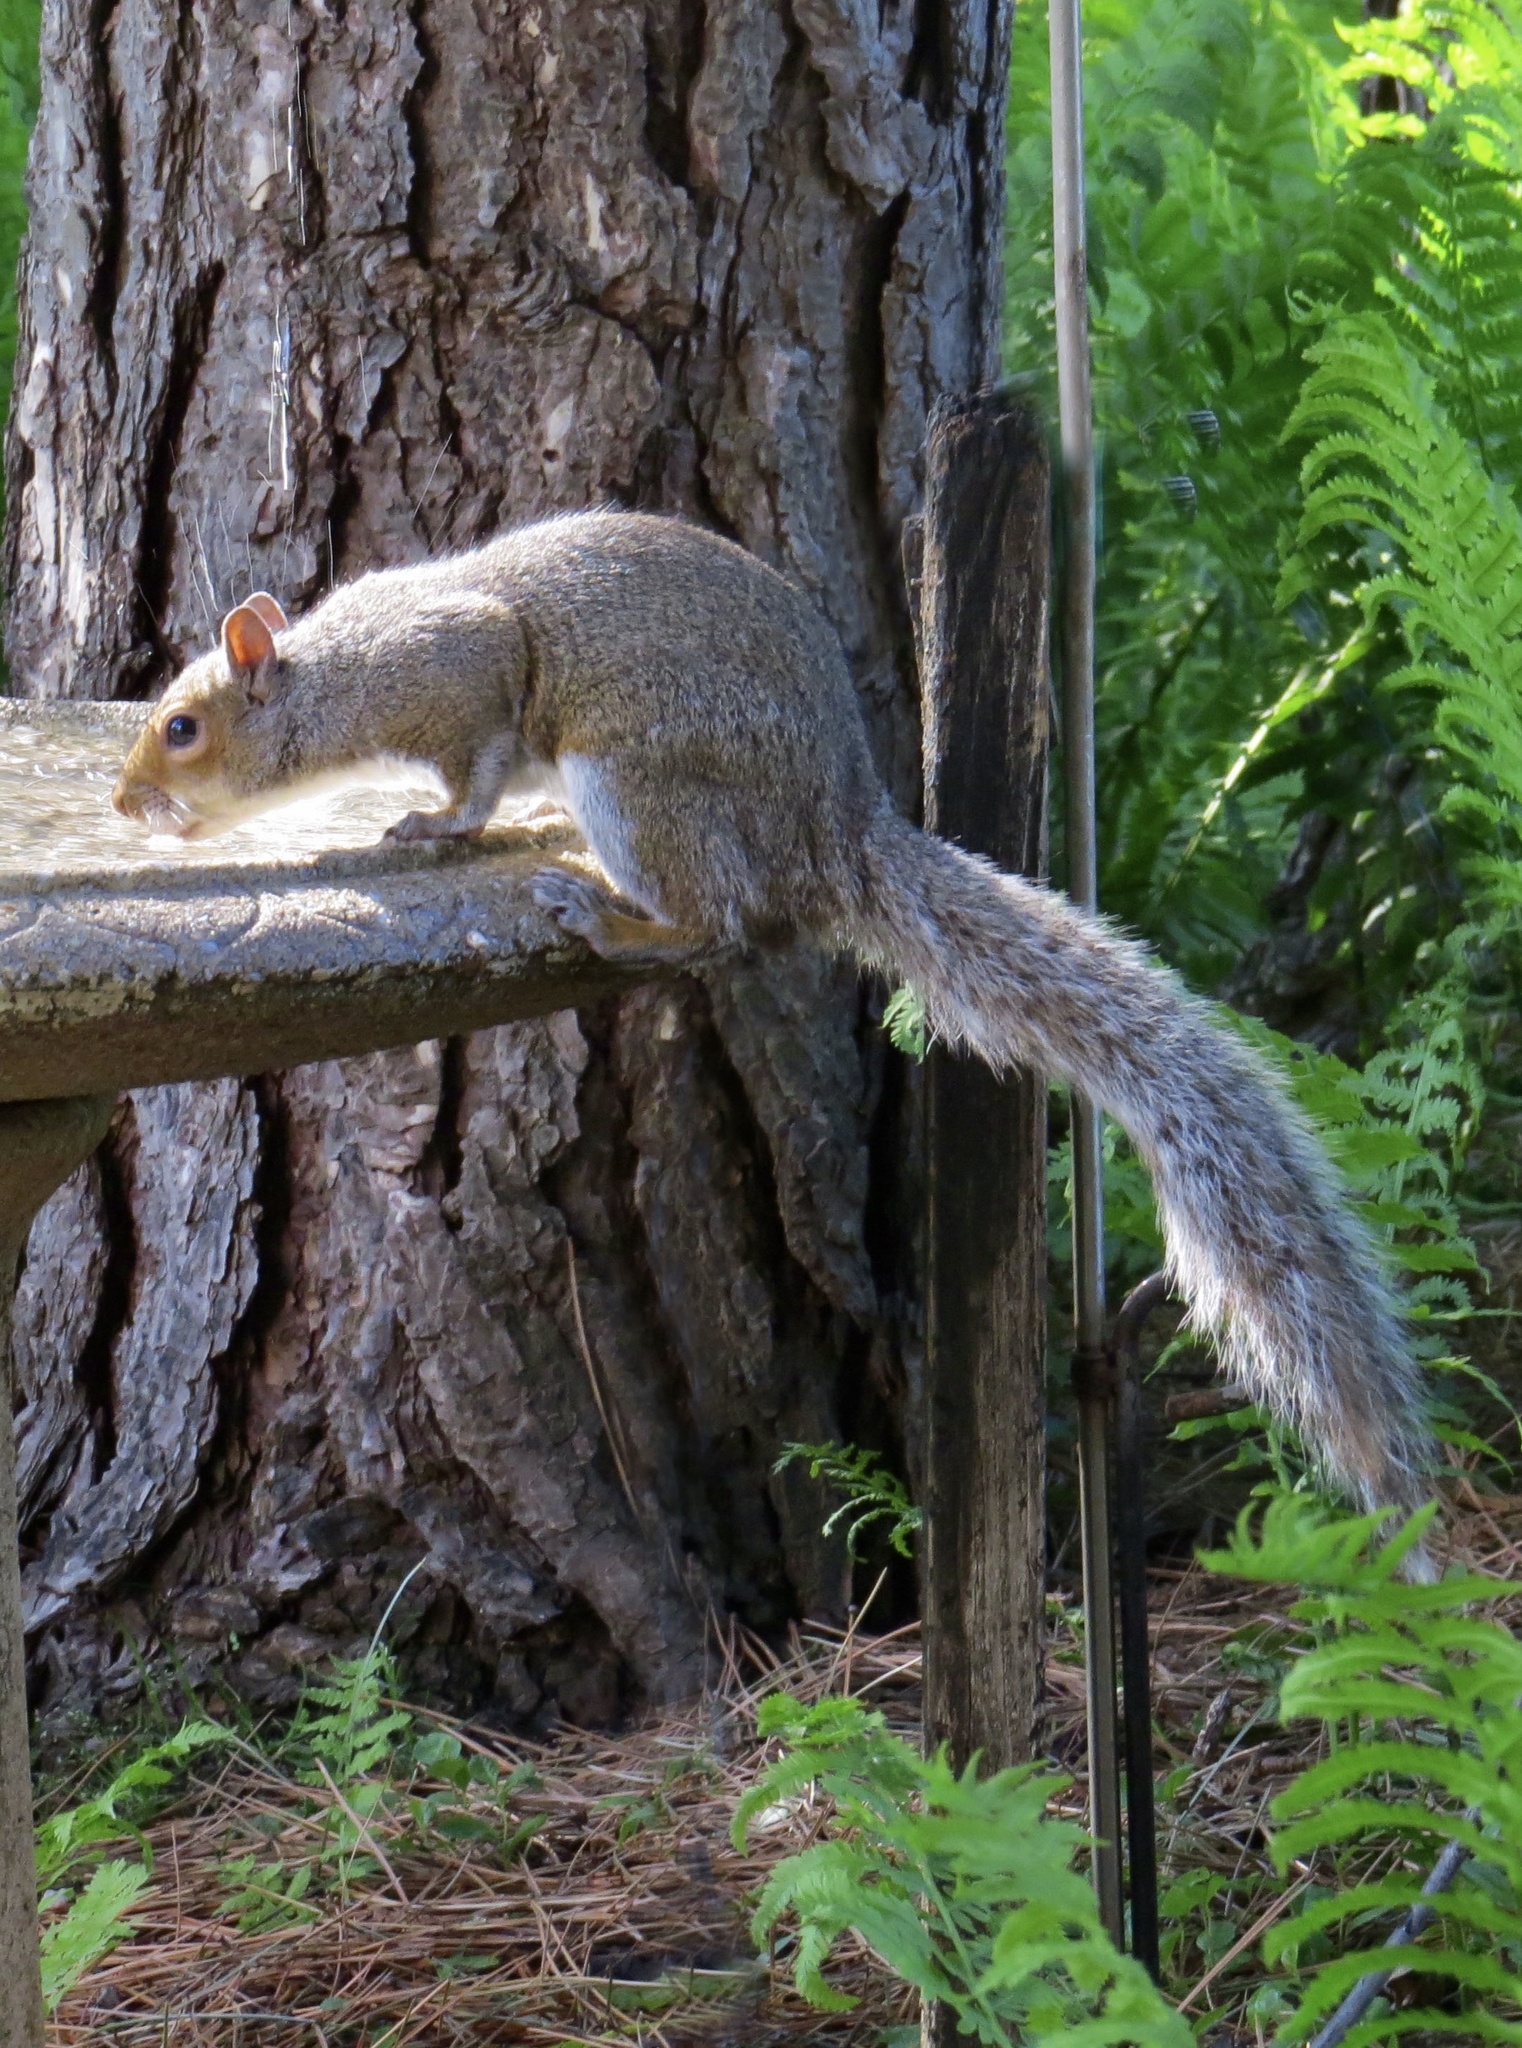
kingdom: Animalia
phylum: Chordata
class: Mammalia
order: Rodentia
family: Sciuridae
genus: Sciurus
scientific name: Sciurus carolinensis
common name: Eastern gray squirrel
